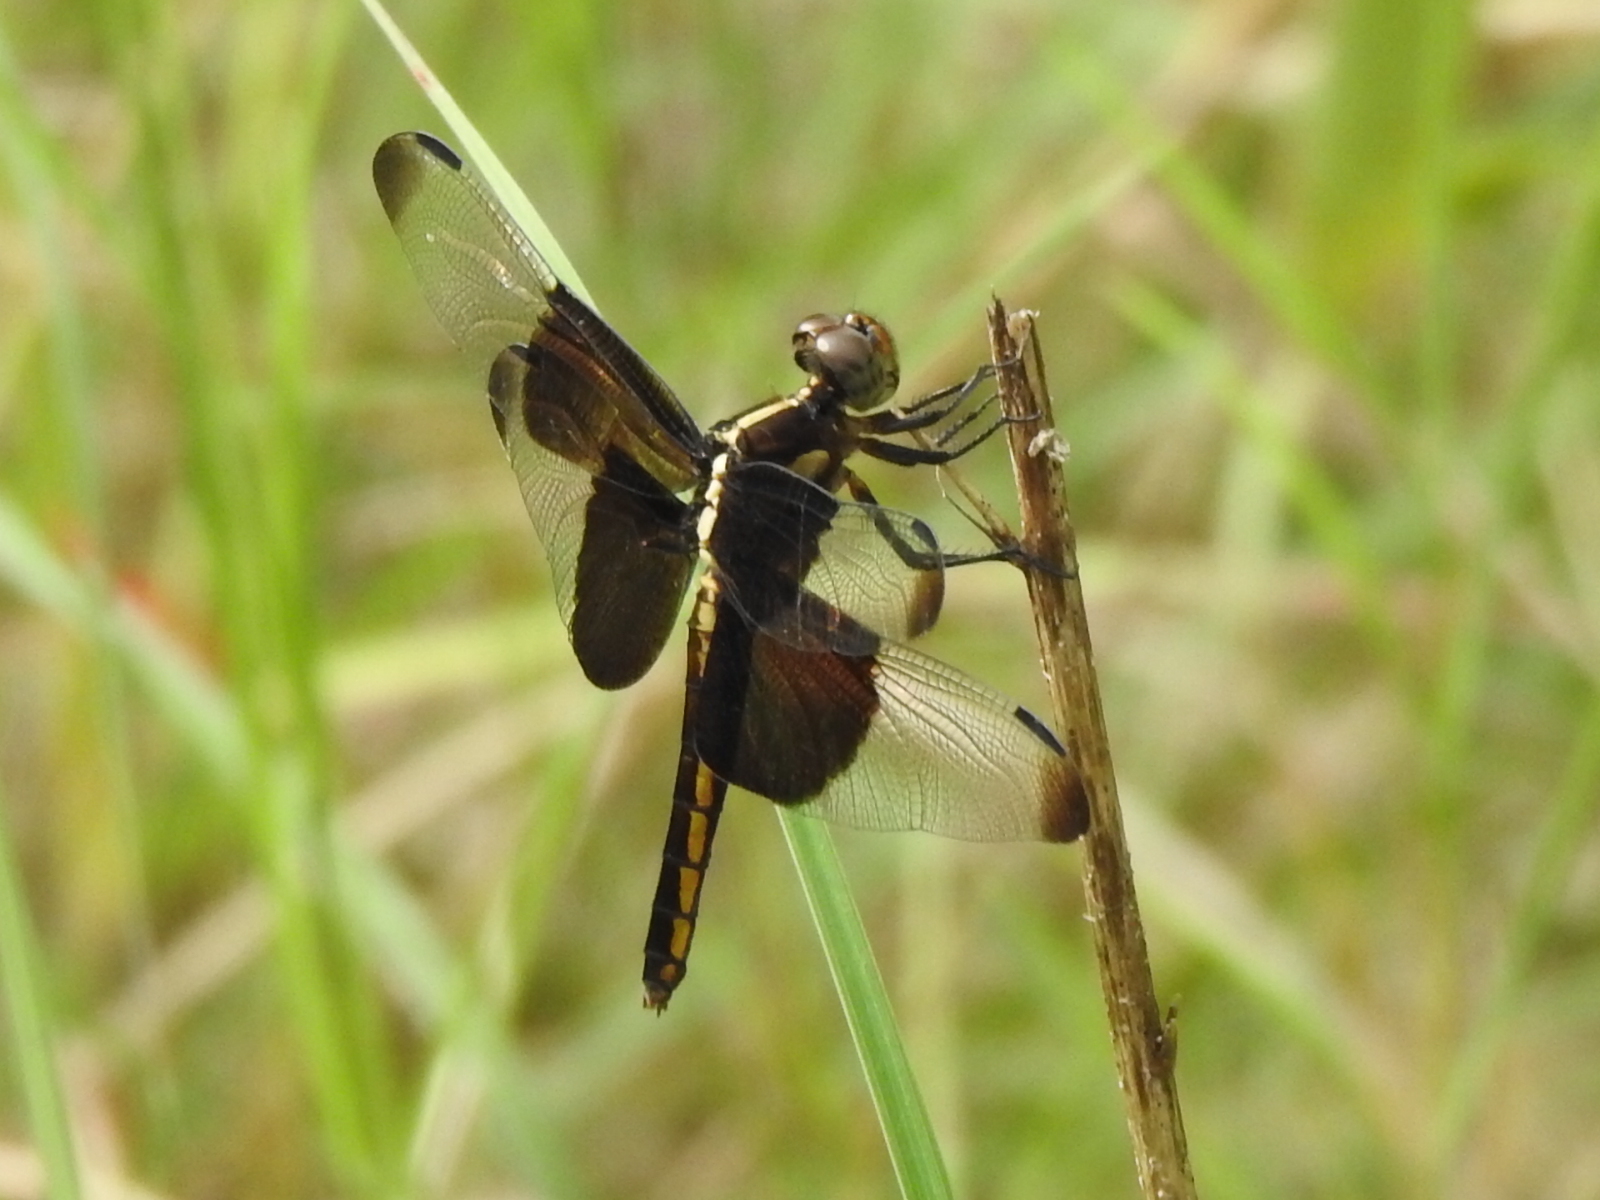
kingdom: Animalia
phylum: Arthropoda
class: Insecta
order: Odonata
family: Libellulidae
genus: Libellula
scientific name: Libellula luctuosa
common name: Widow skimmer
